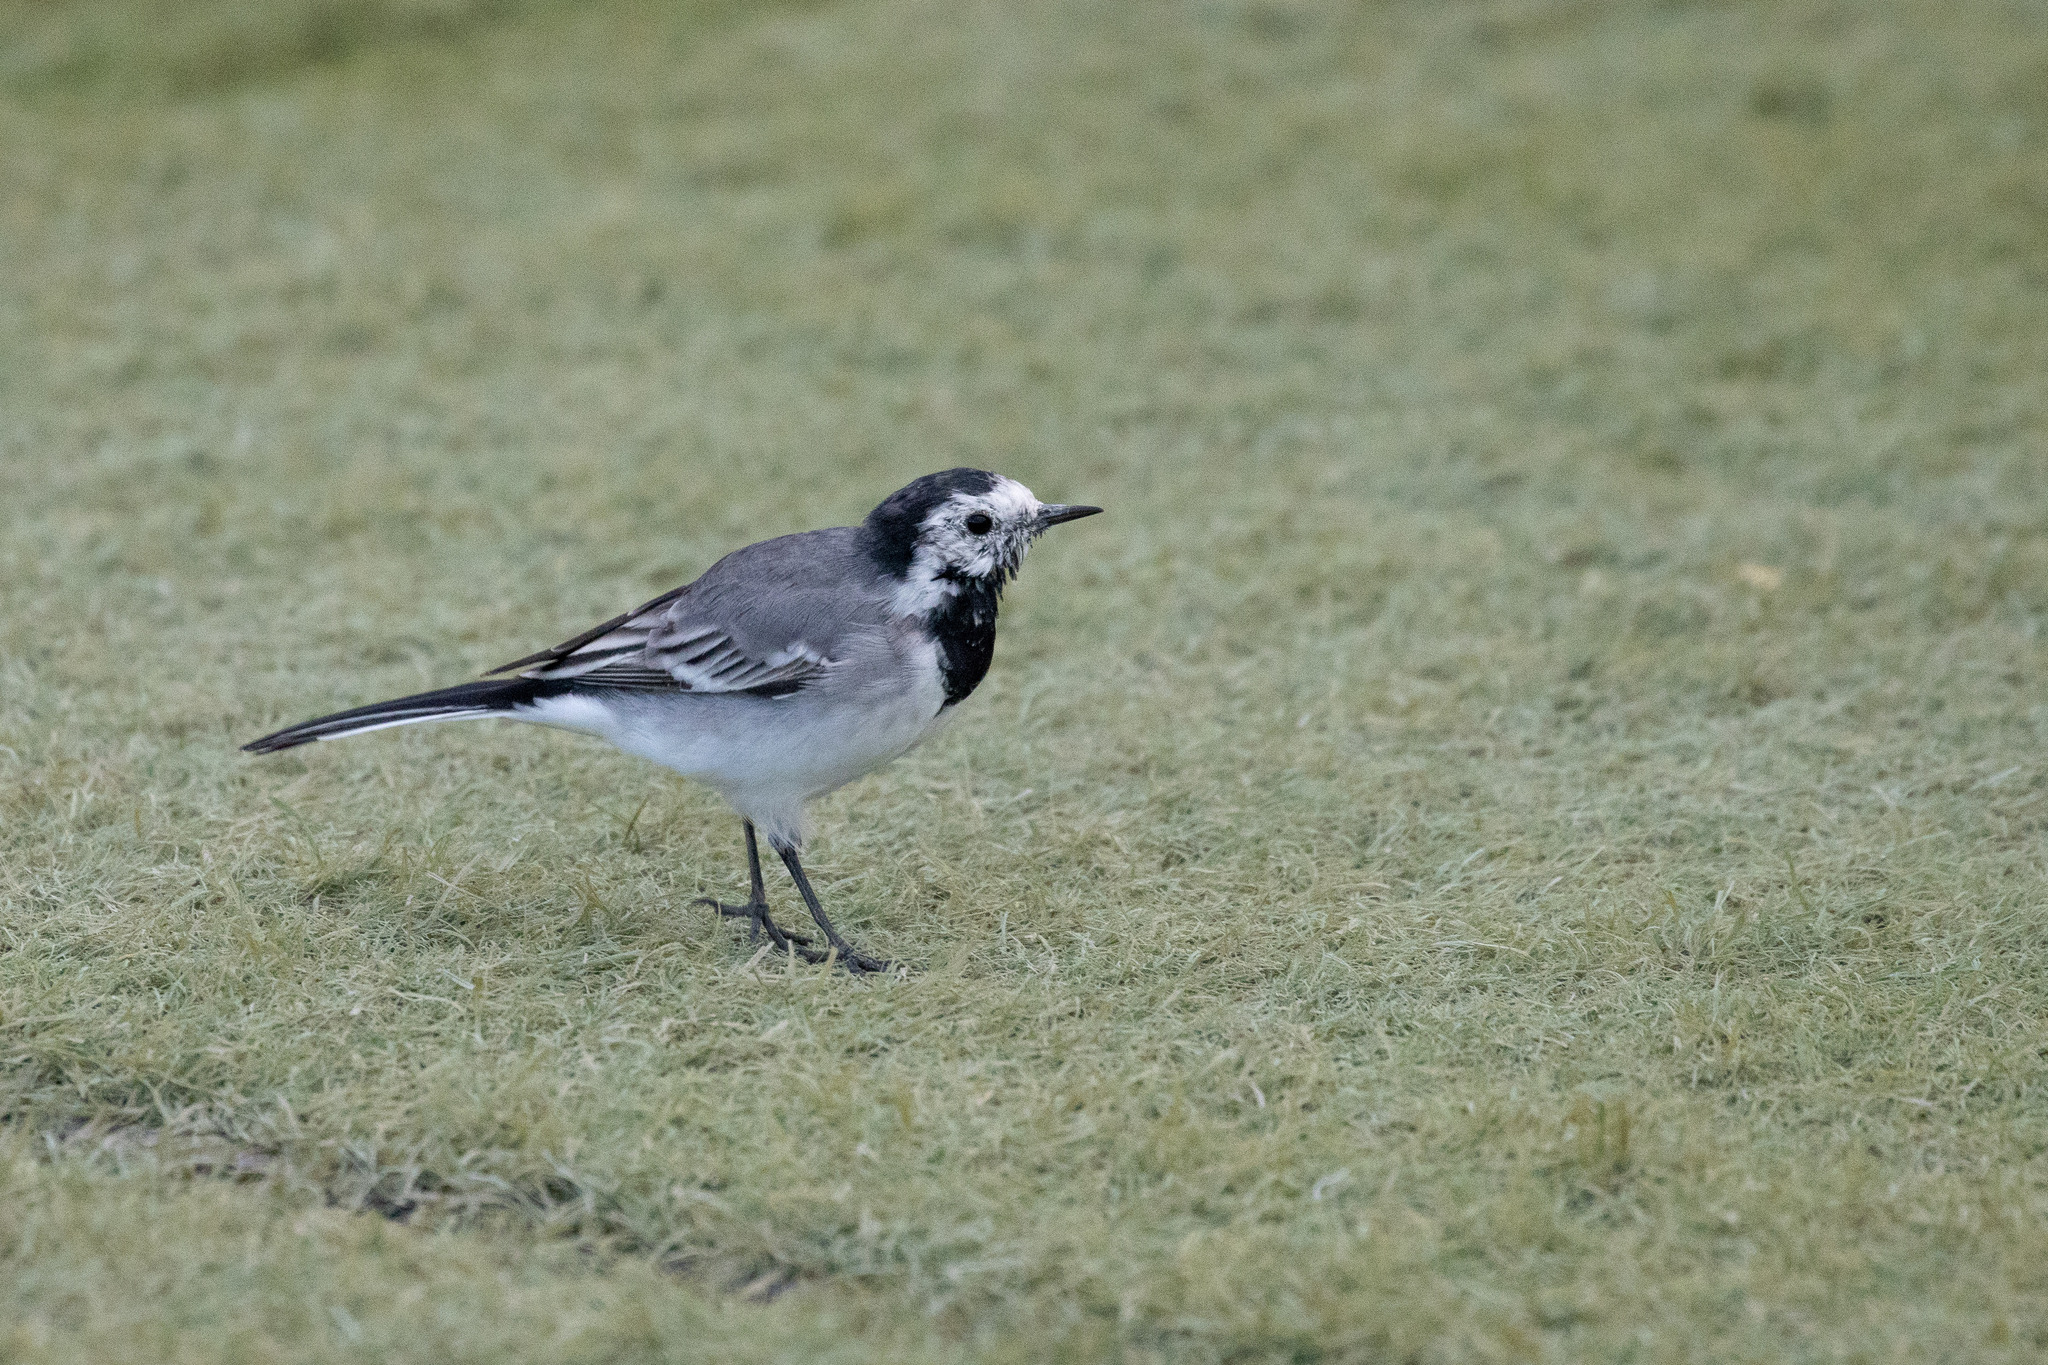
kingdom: Animalia
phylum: Chordata
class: Aves
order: Passeriformes
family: Motacillidae
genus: Motacilla
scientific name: Motacilla alba
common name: White wagtail
